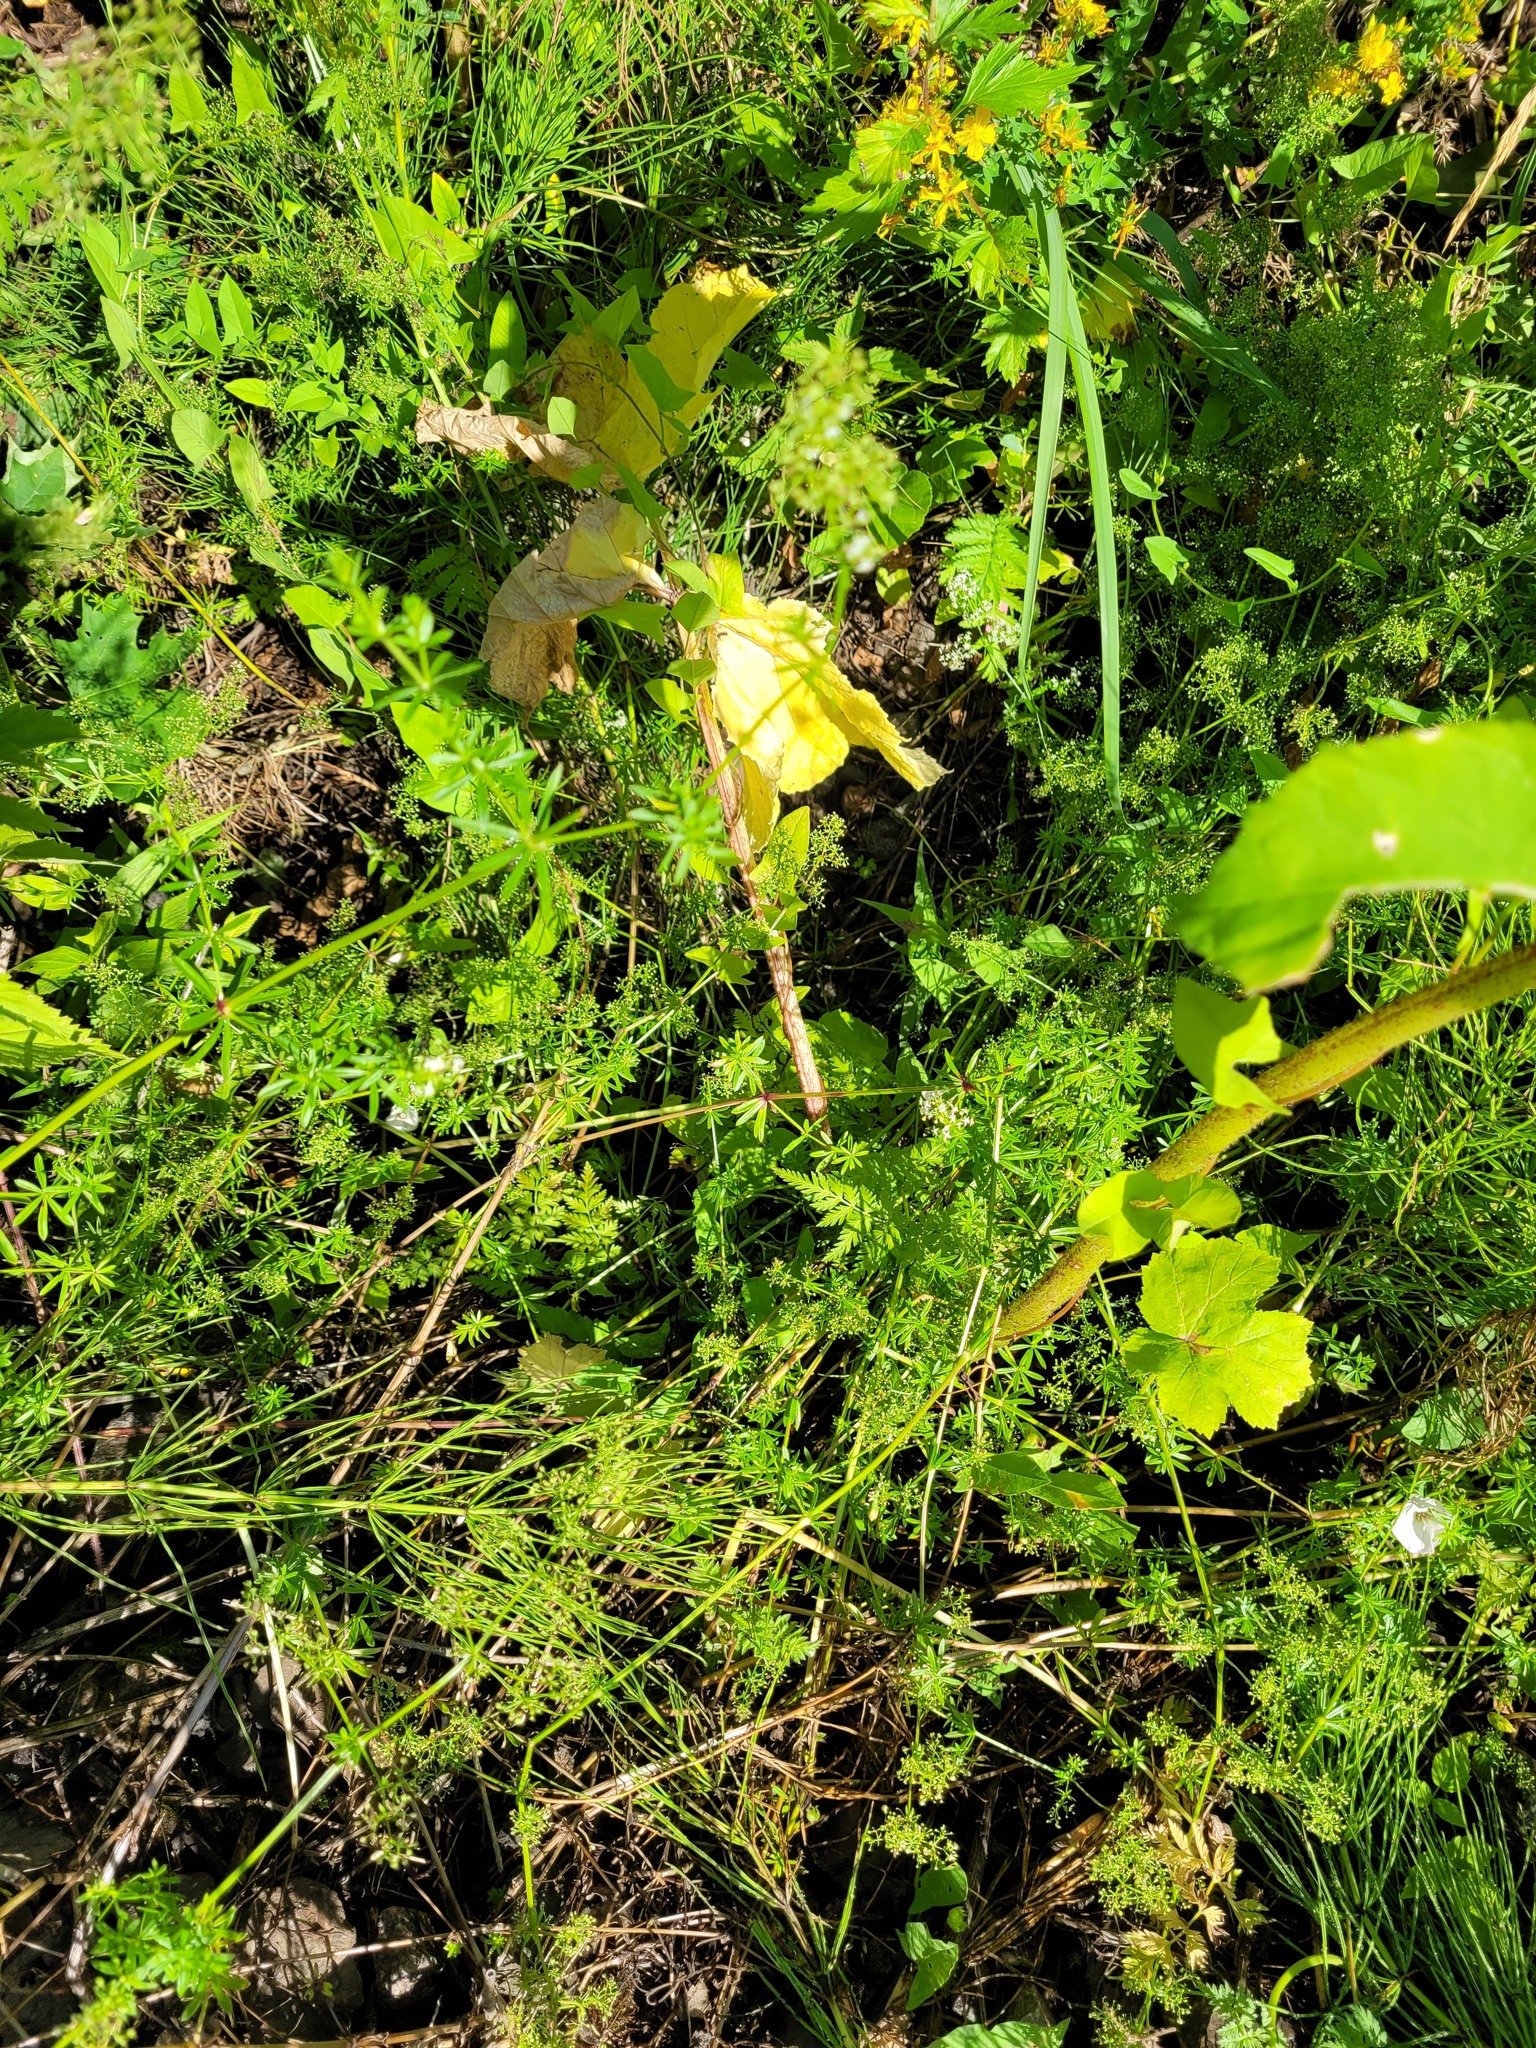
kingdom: Plantae
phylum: Tracheophyta
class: Magnoliopsida
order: Gentianales
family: Rubiaceae
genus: Galium
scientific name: Galium mollugo
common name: Hedge bedstraw
